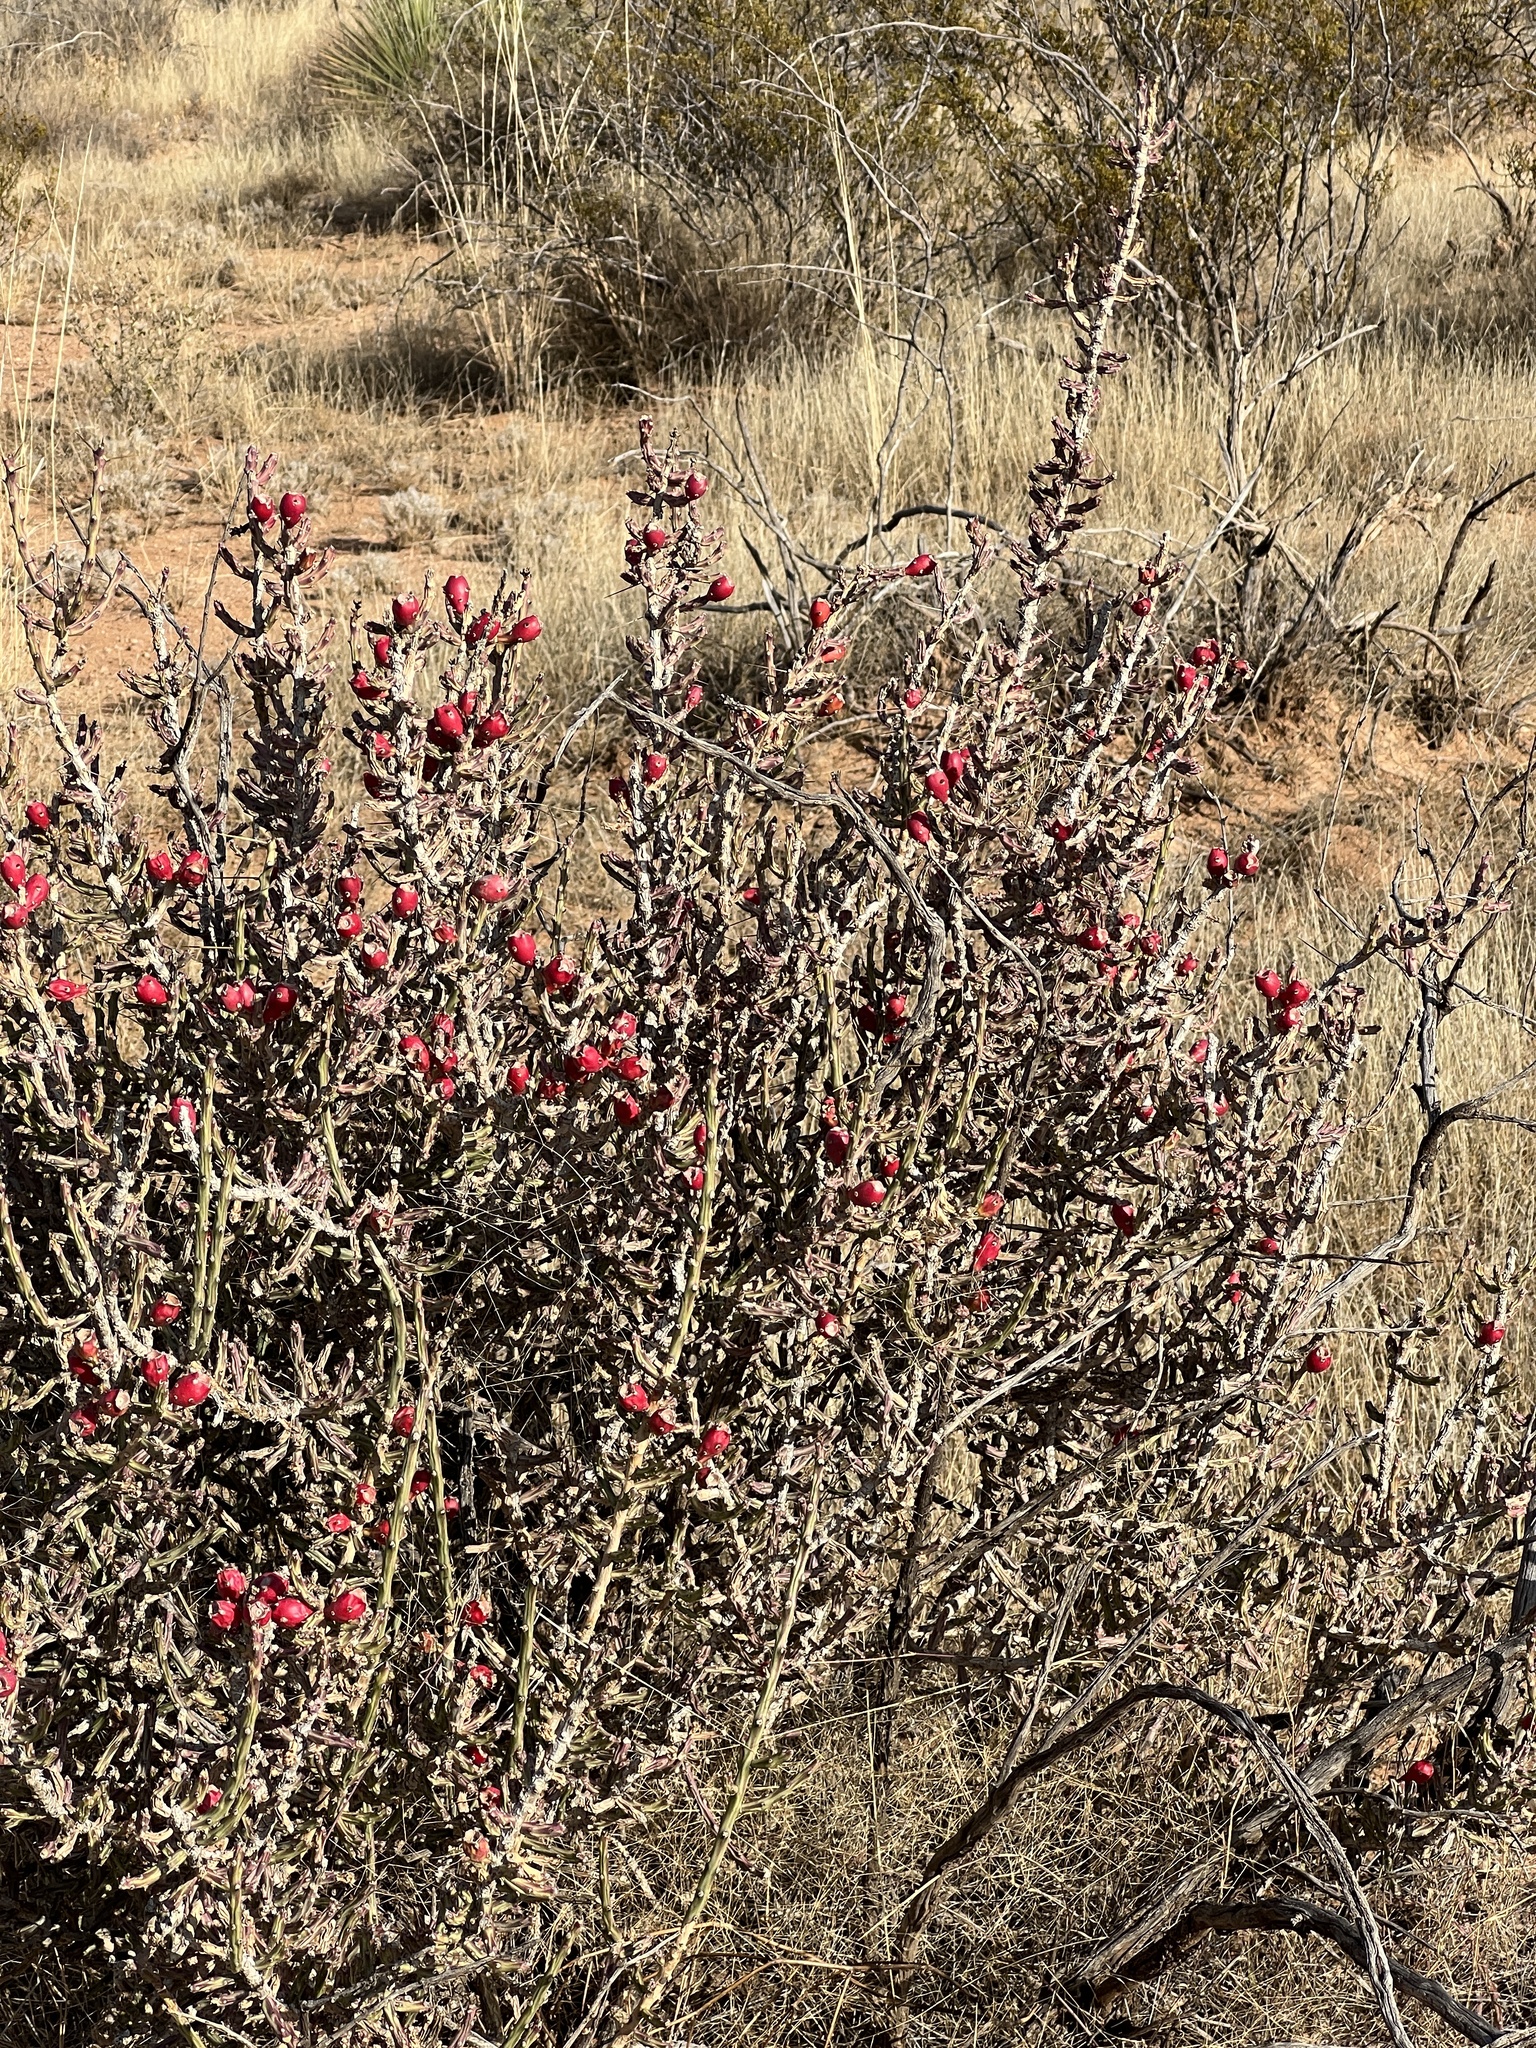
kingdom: Plantae
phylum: Tracheophyta
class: Magnoliopsida
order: Caryophyllales
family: Cactaceae
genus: Cylindropuntia
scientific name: Cylindropuntia leptocaulis
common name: Christmas cactus
